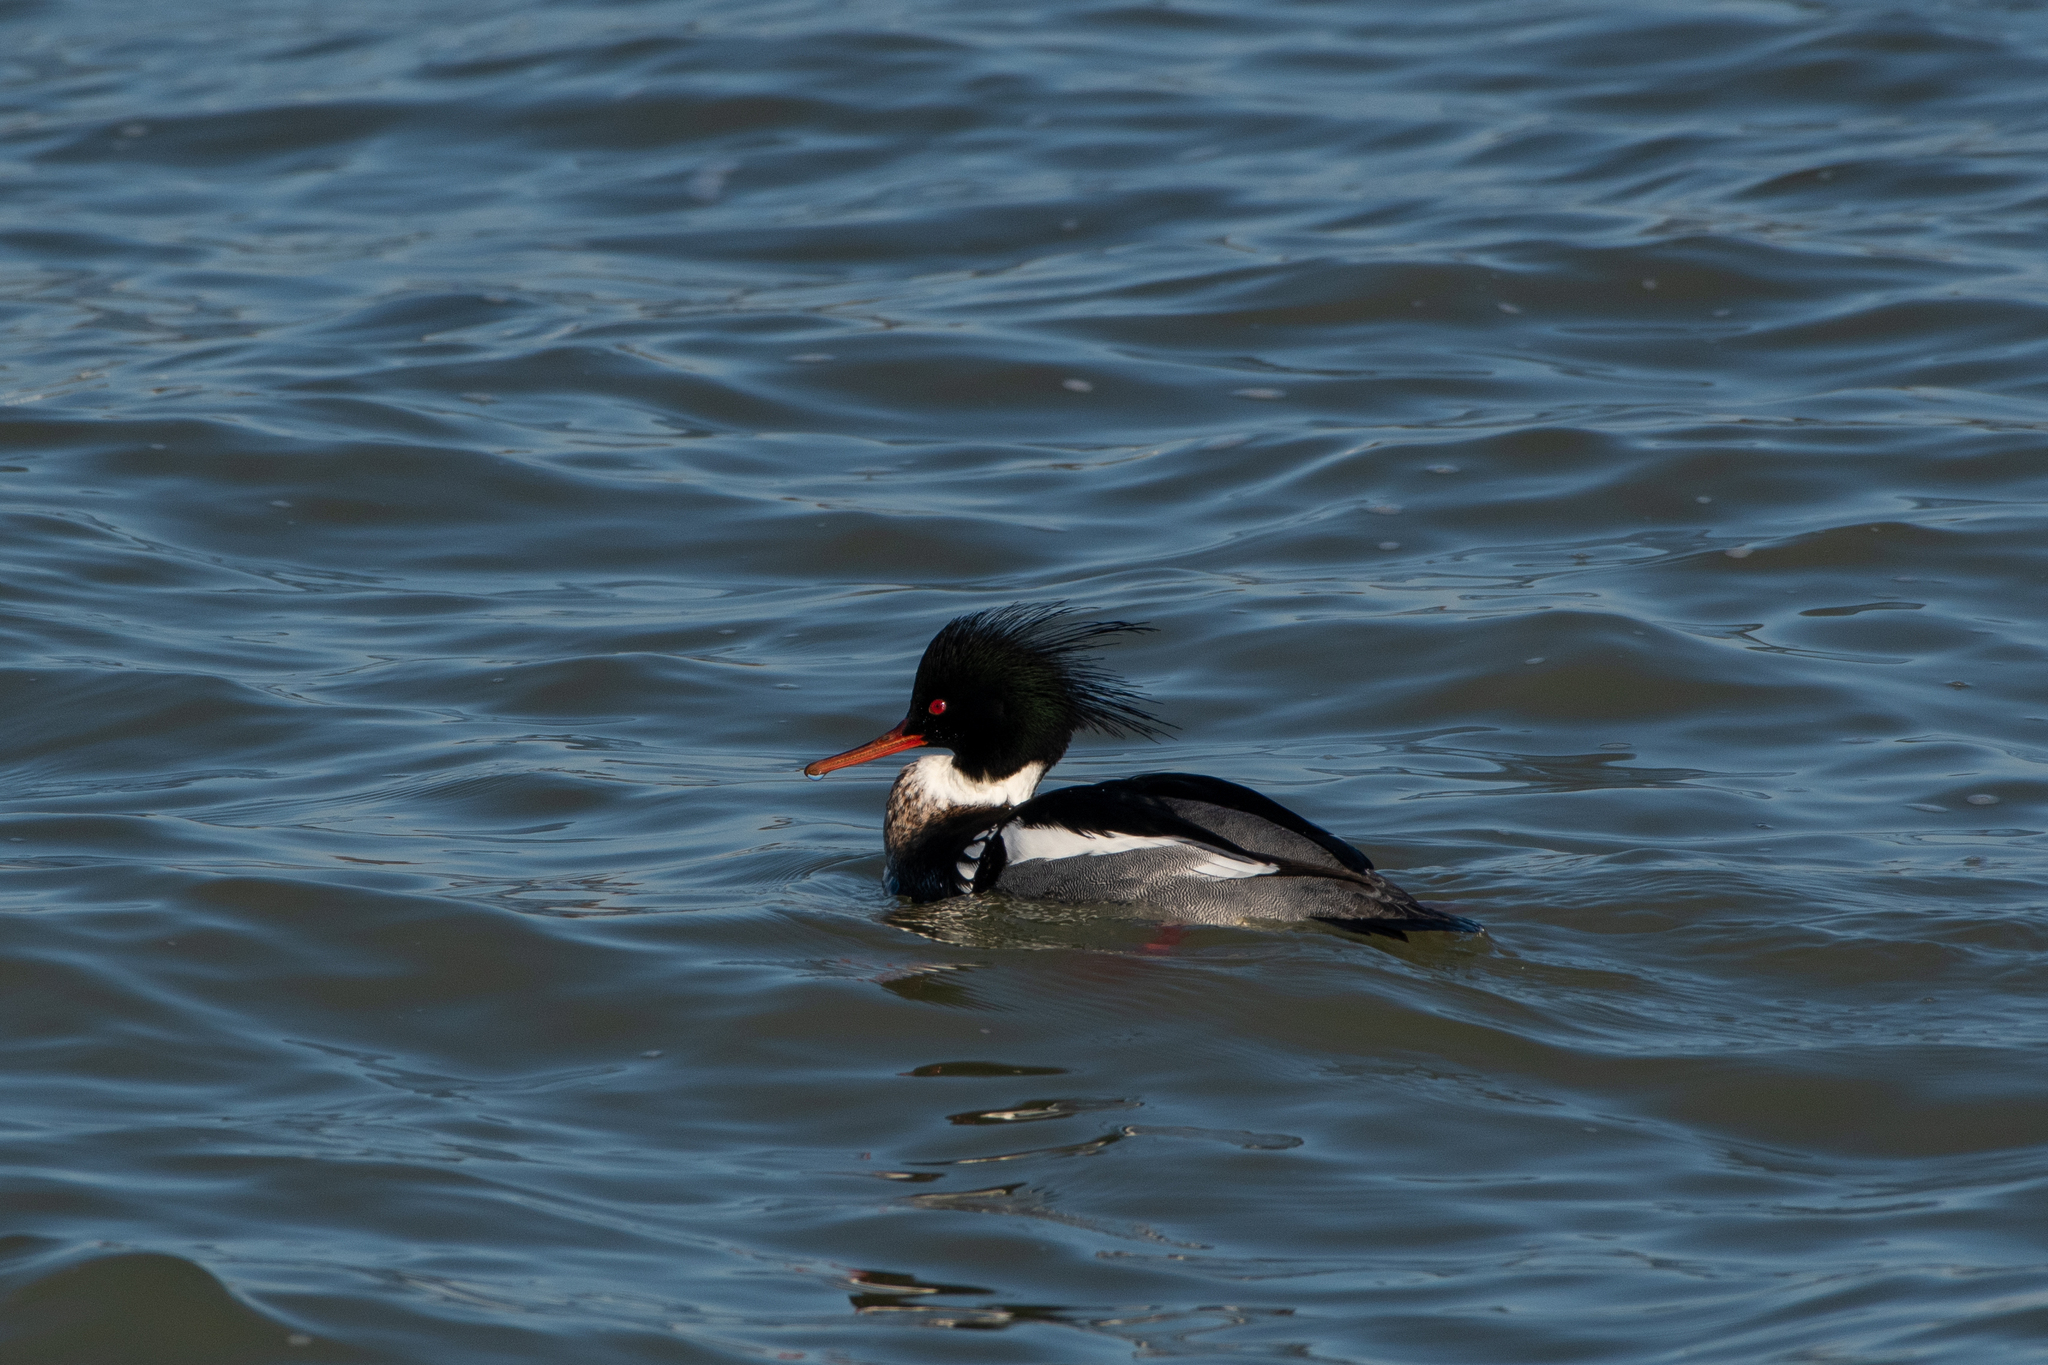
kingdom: Animalia
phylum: Chordata
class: Aves
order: Anseriformes
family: Anatidae
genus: Mergus
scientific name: Mergus serrator
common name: Red-breasted merganser
